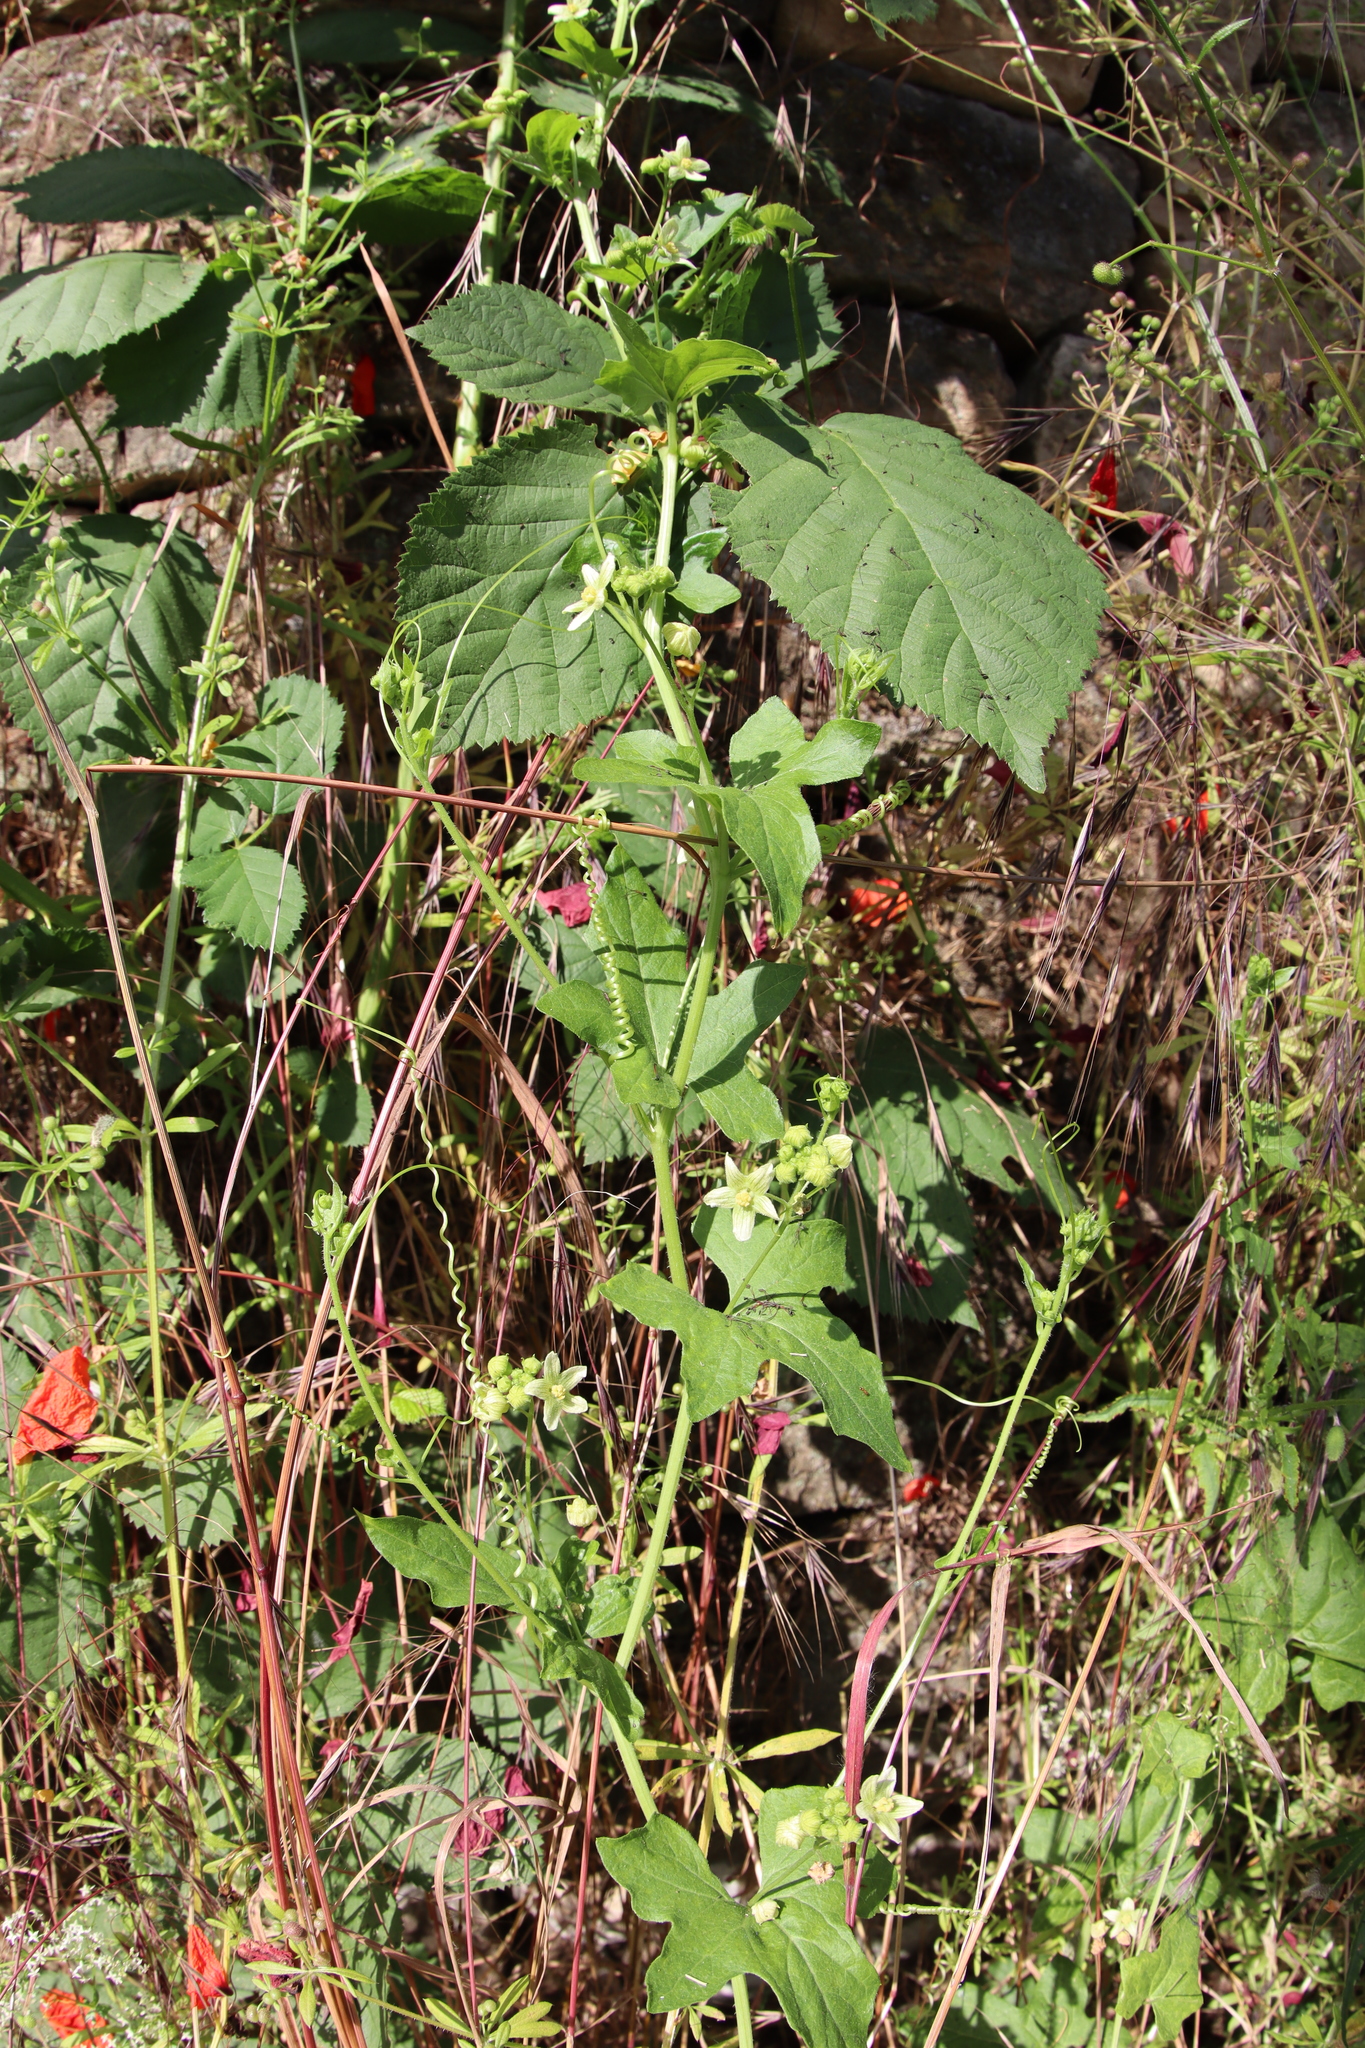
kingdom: Plantae
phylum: Tracheophyta
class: Magnoliopsida
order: Cucurbitales
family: Cucurbitaceae
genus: Bryonia
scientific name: Bryonia cretica
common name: Cretan bryony
